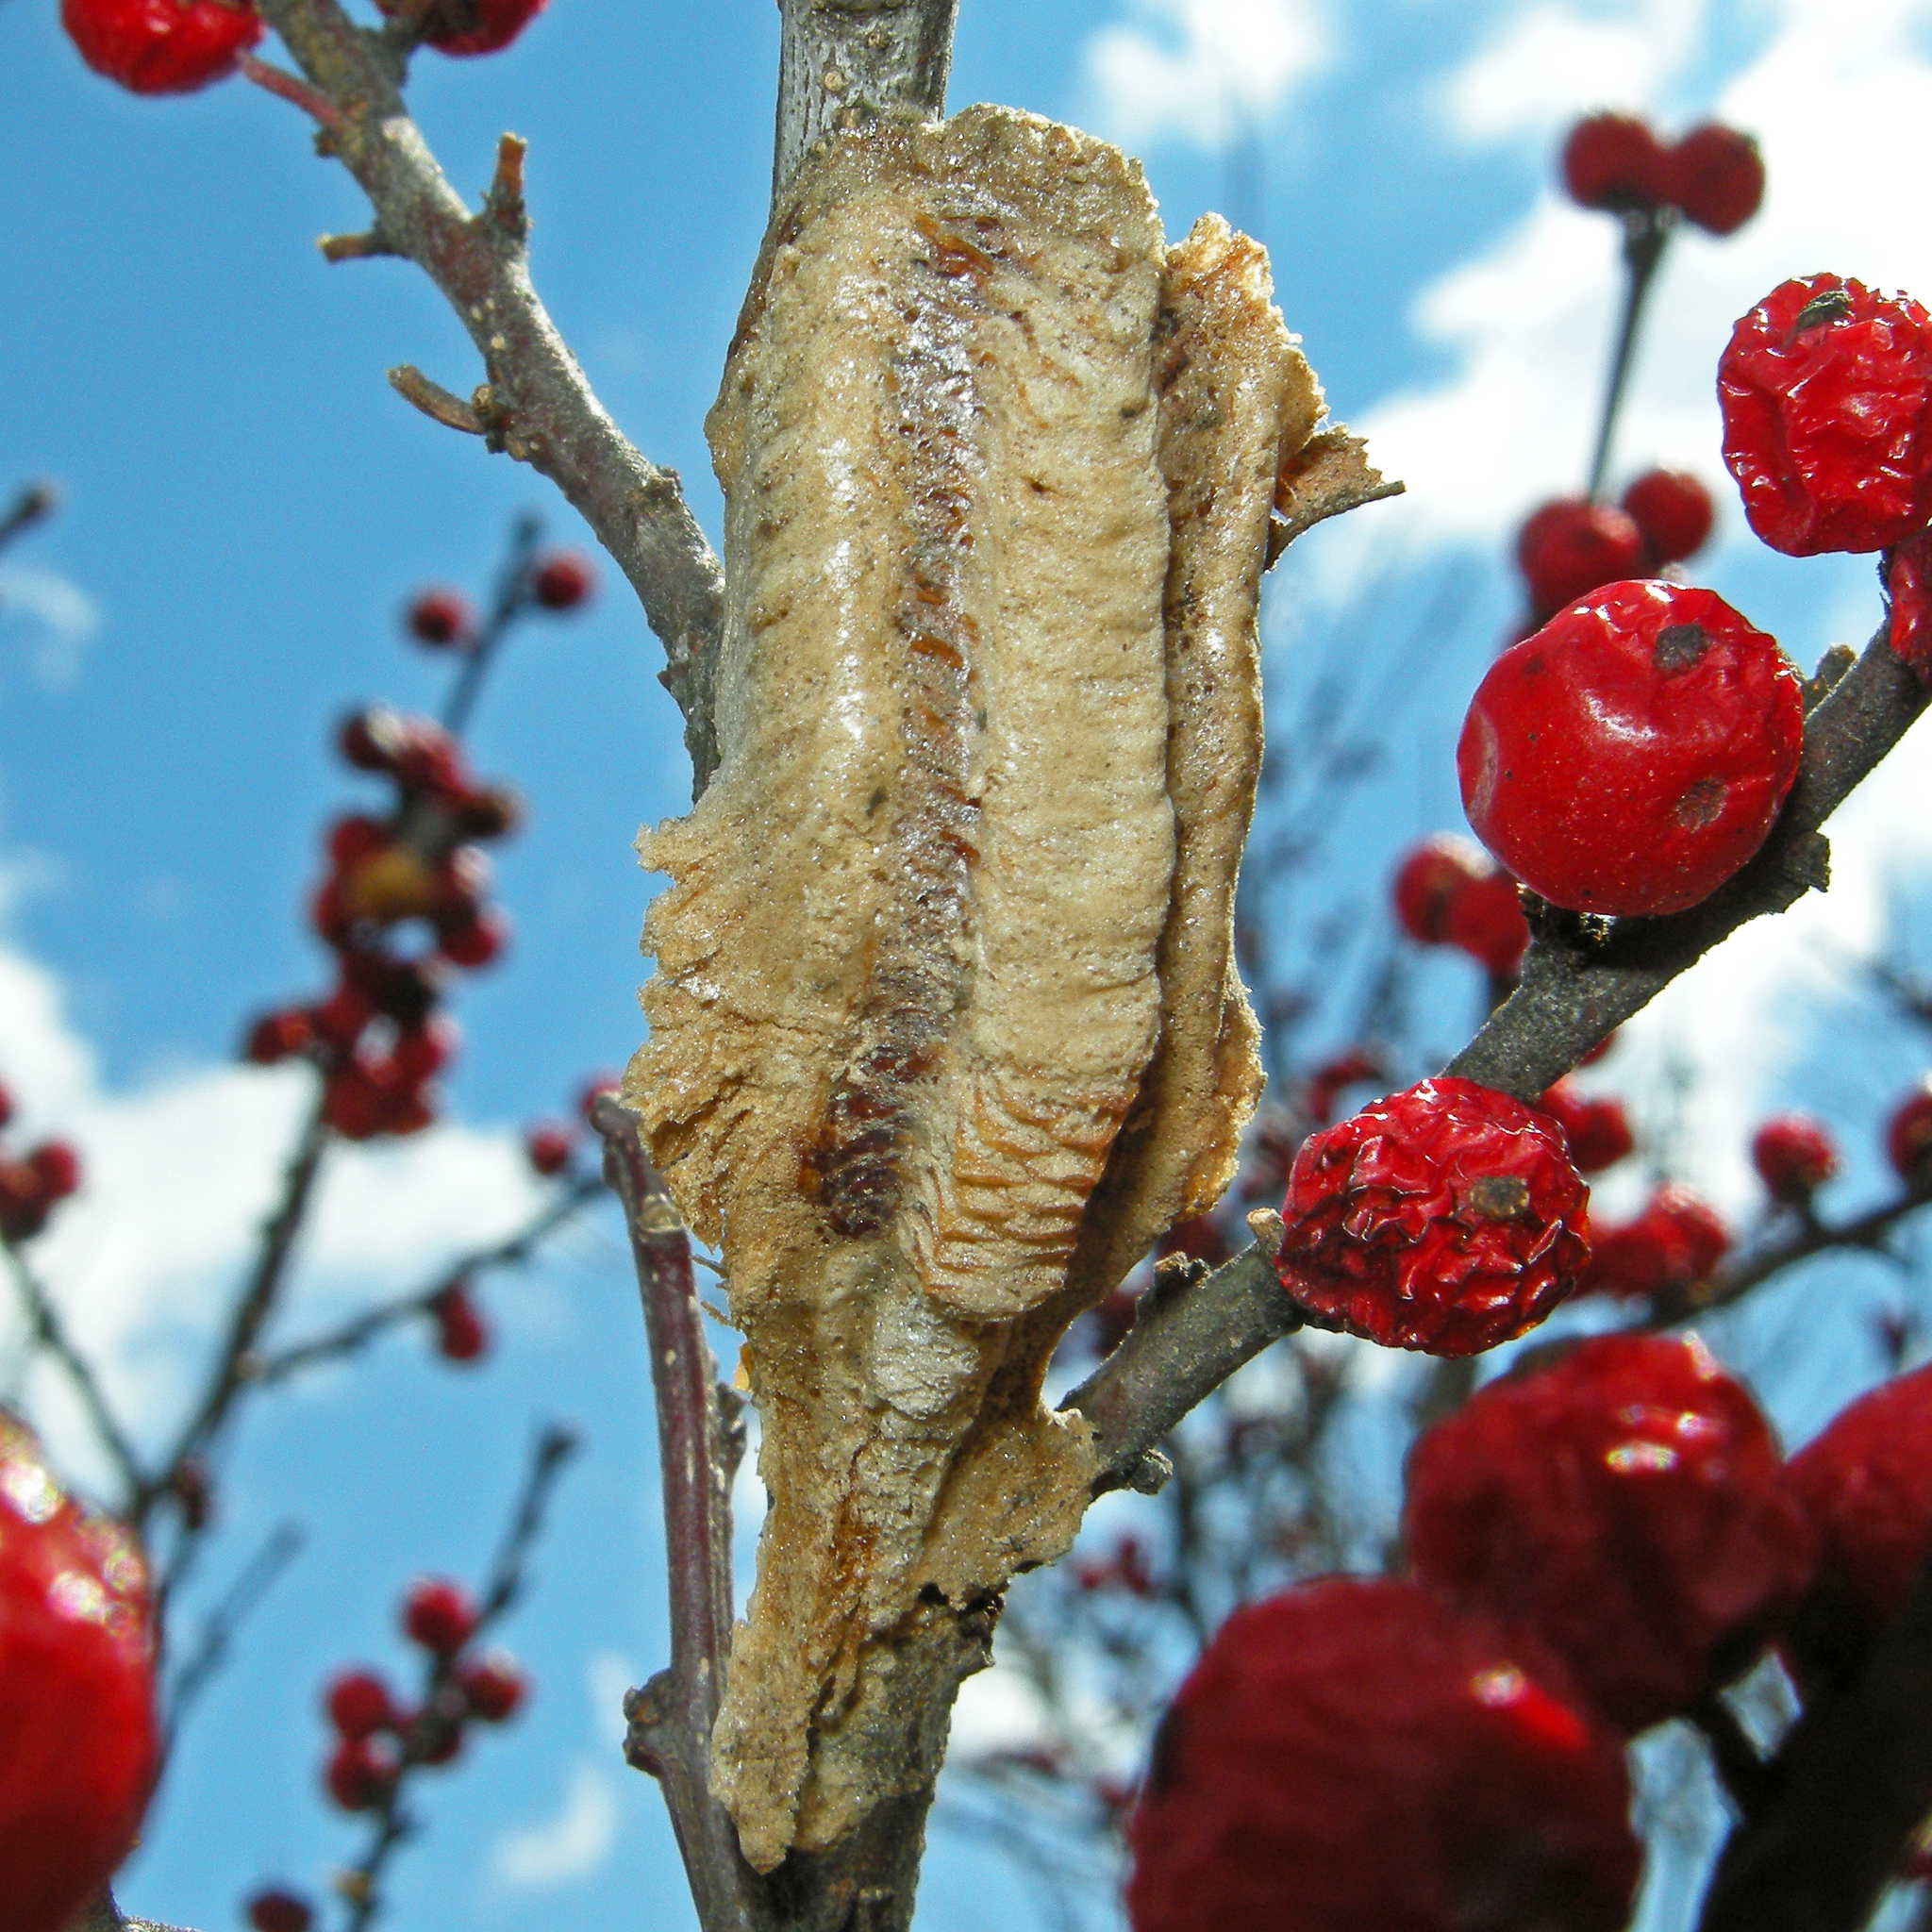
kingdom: Animalia
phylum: Arthropoda
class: Insecta
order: Mantodea
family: Mantidae
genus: Tenodera
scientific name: Tenodera angustipennis
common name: Asian mantis
